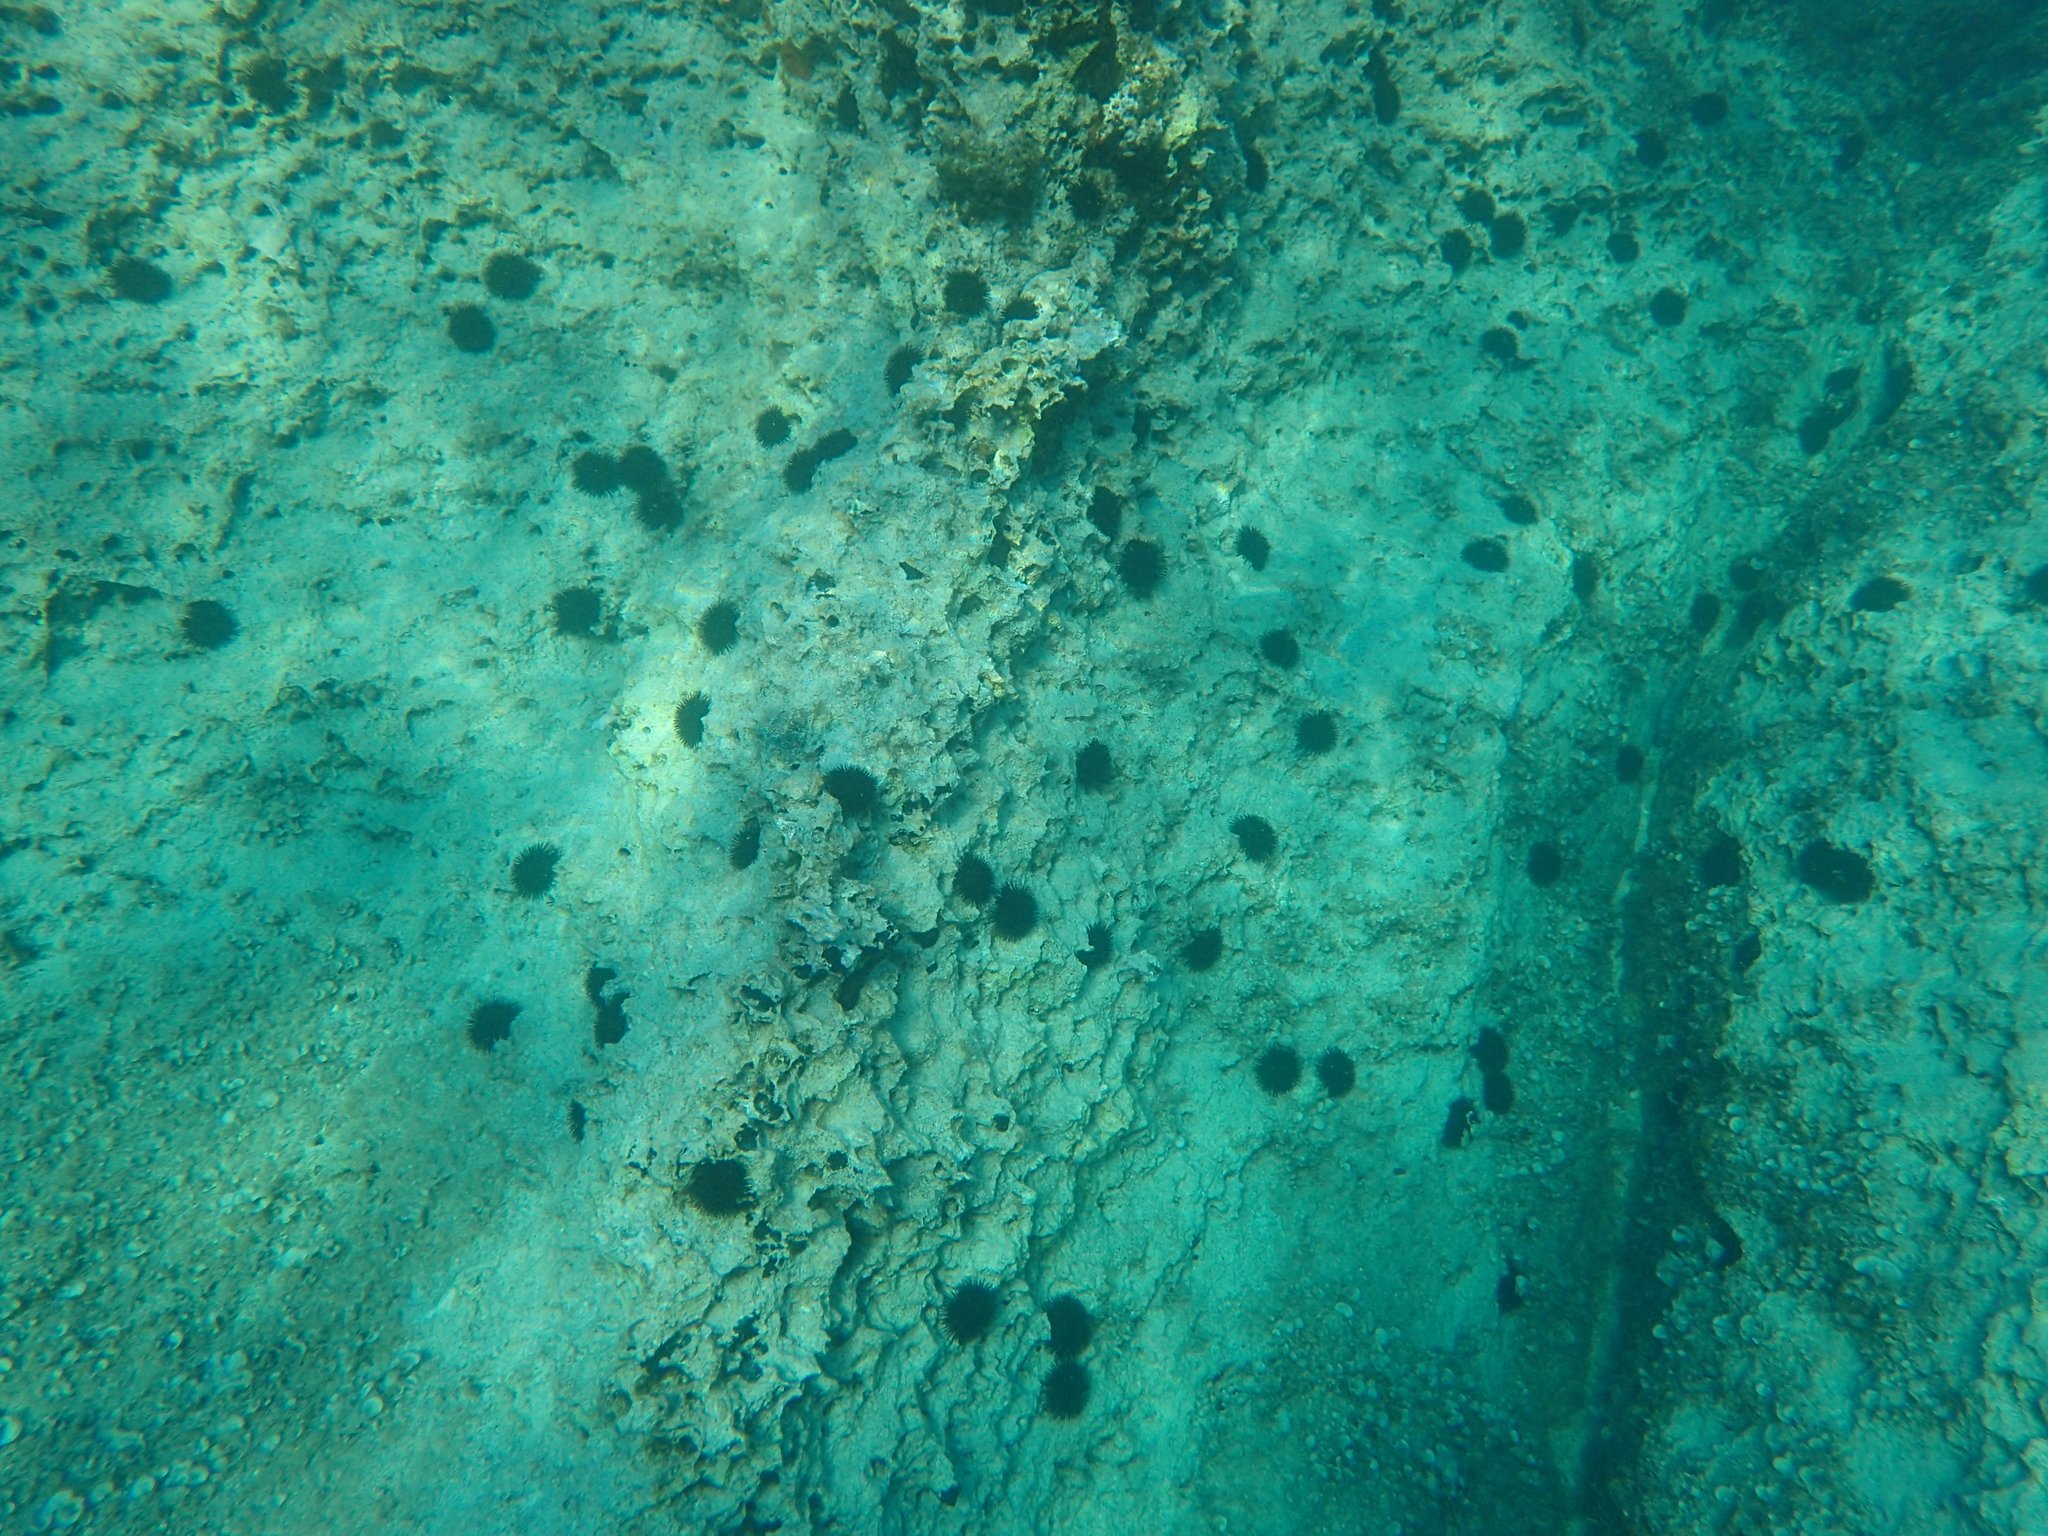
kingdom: Animalia
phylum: Echinodermata
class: Echinoidea
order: Arbacioida
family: Arbaciidae
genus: Arbacia
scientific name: Arbacia lixula
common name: Black sea urchin
